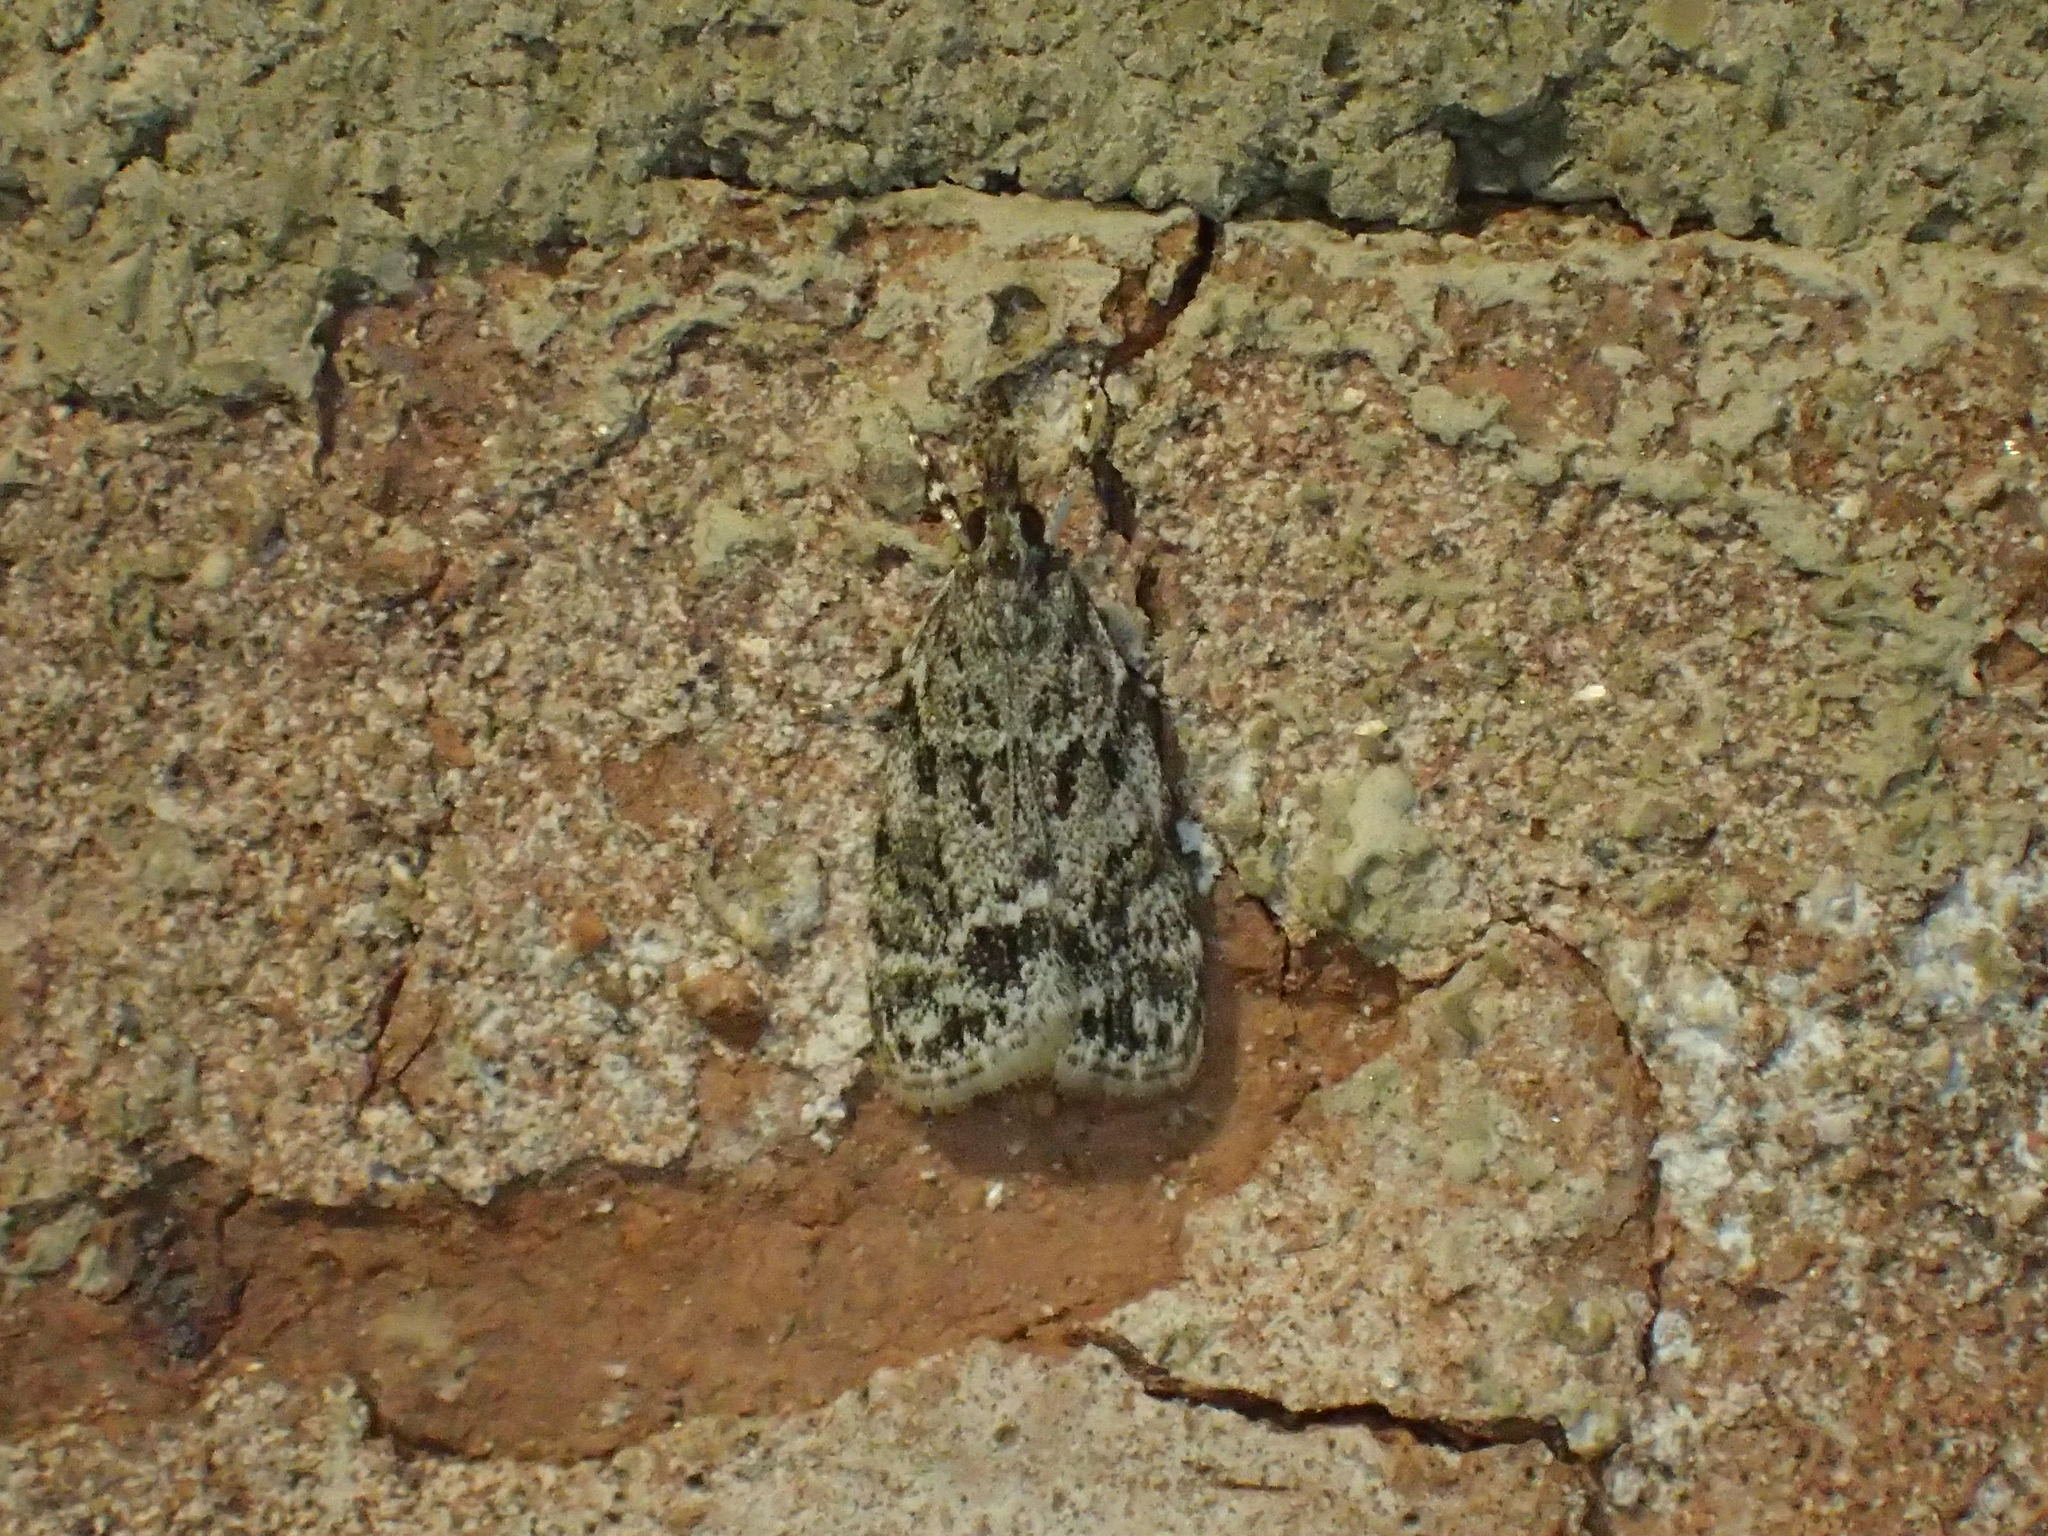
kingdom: Animalia
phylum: Arthropoda
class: Insecta
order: Lepidoptera
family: Crambidae
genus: Scoparia
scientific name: Scoparia basalis
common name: Many-spotted scoparia moth
